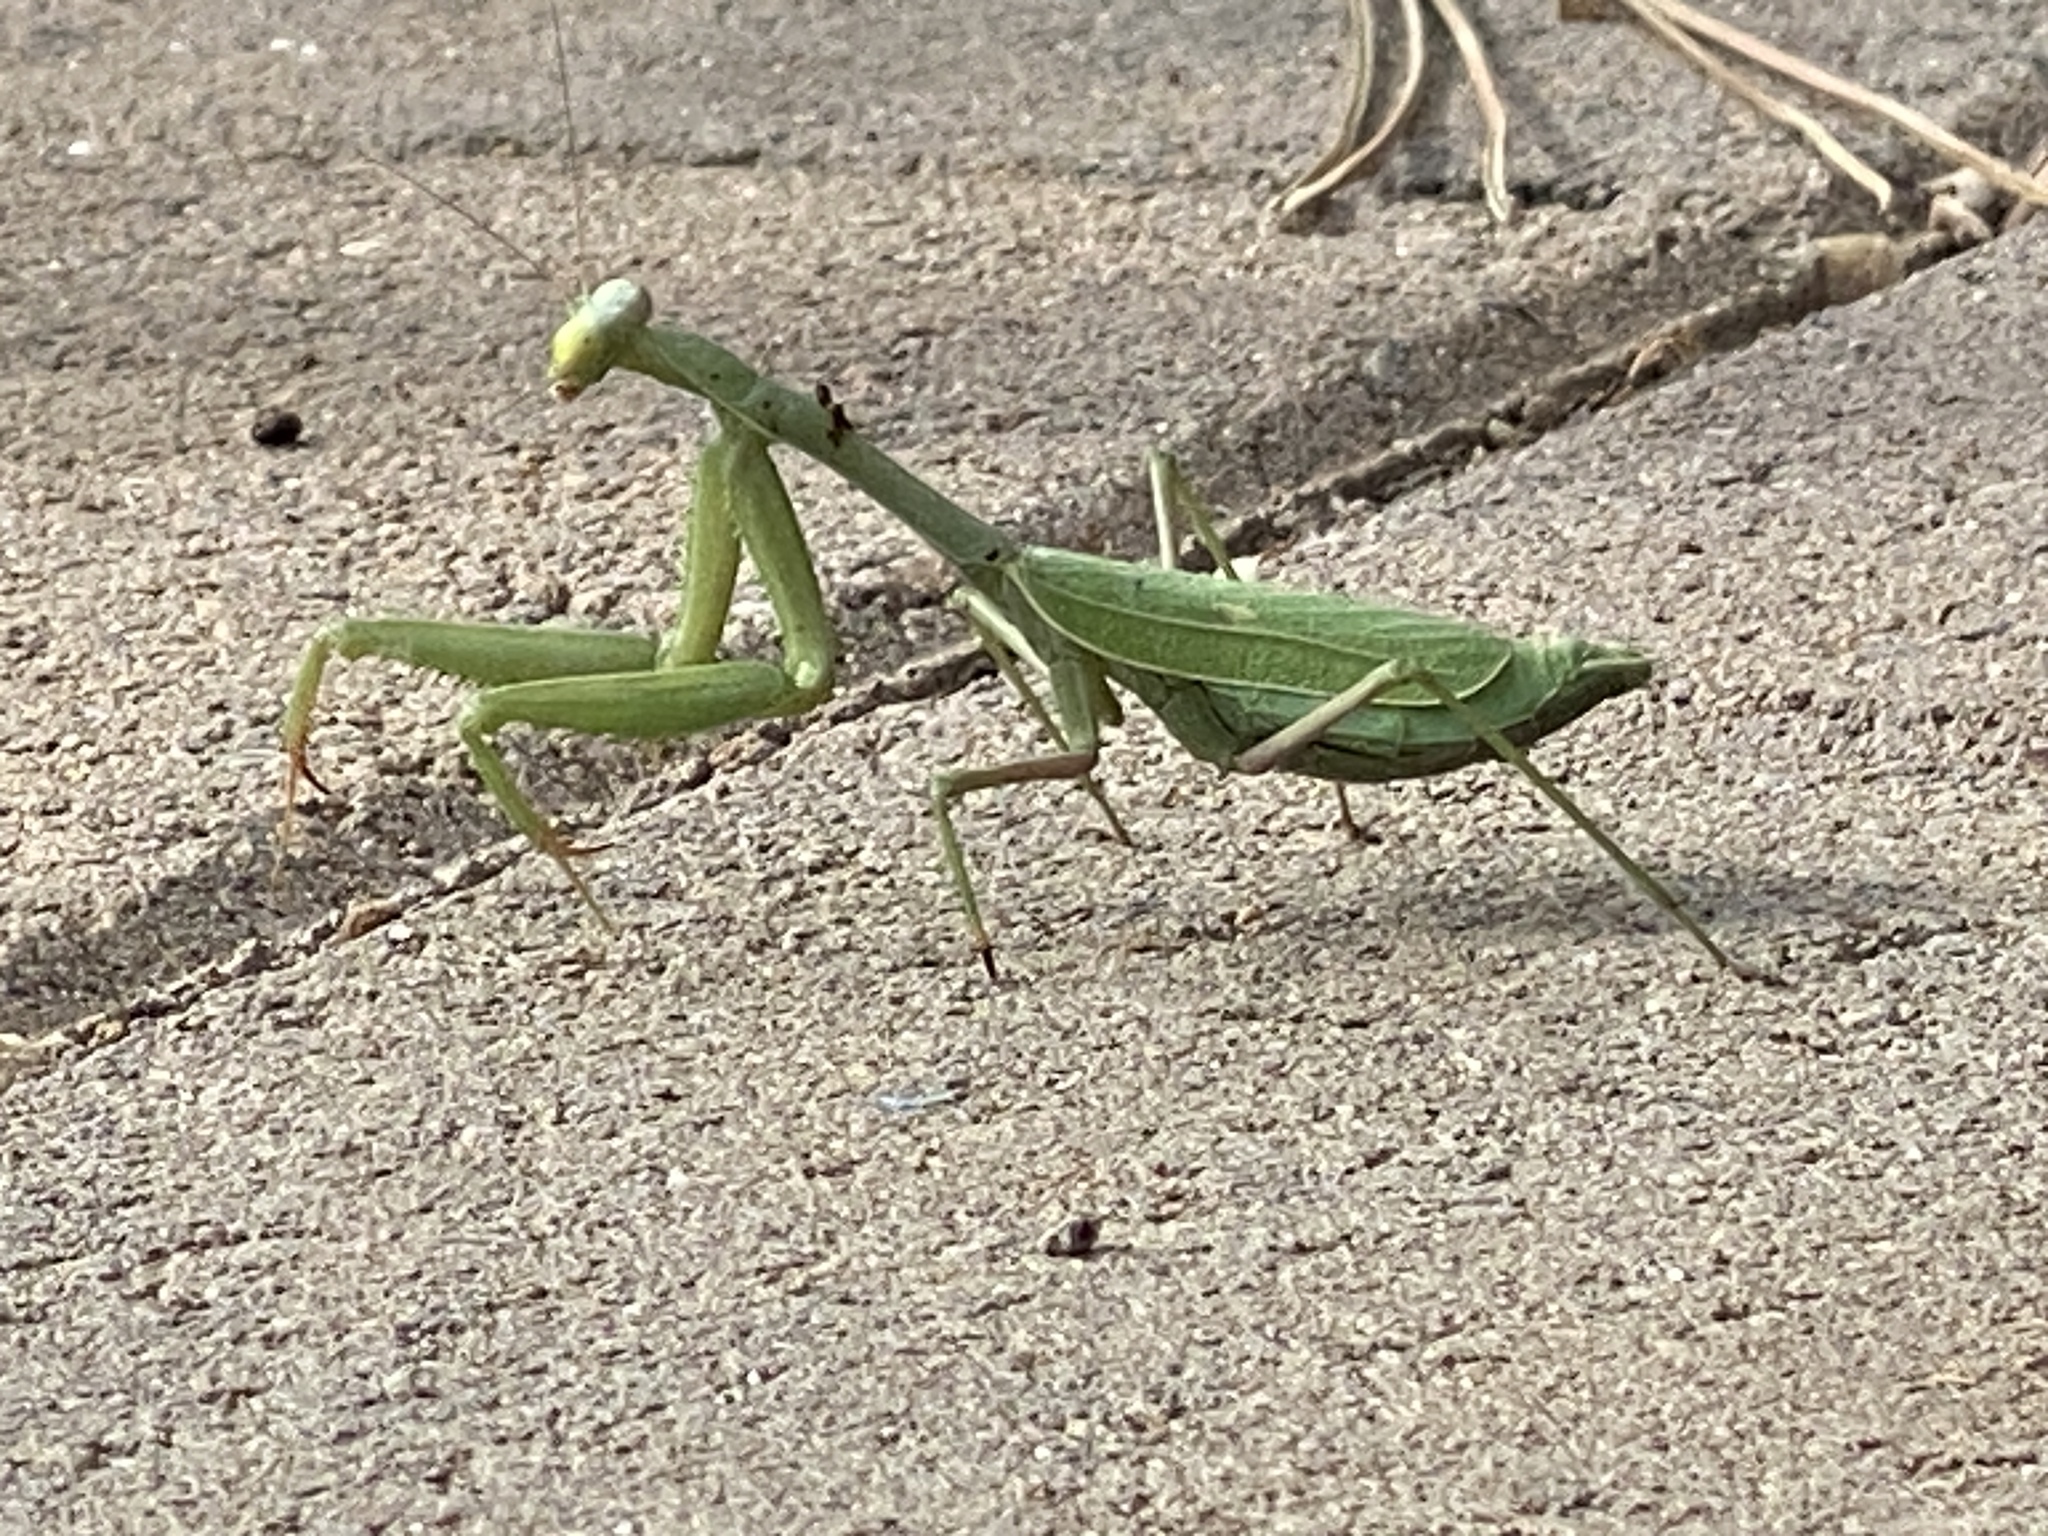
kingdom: Animalia
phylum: Arthropoda
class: Insecta
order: Mantodea
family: Mantidae
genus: Stagmomantis
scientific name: Stagmomantis limbata
